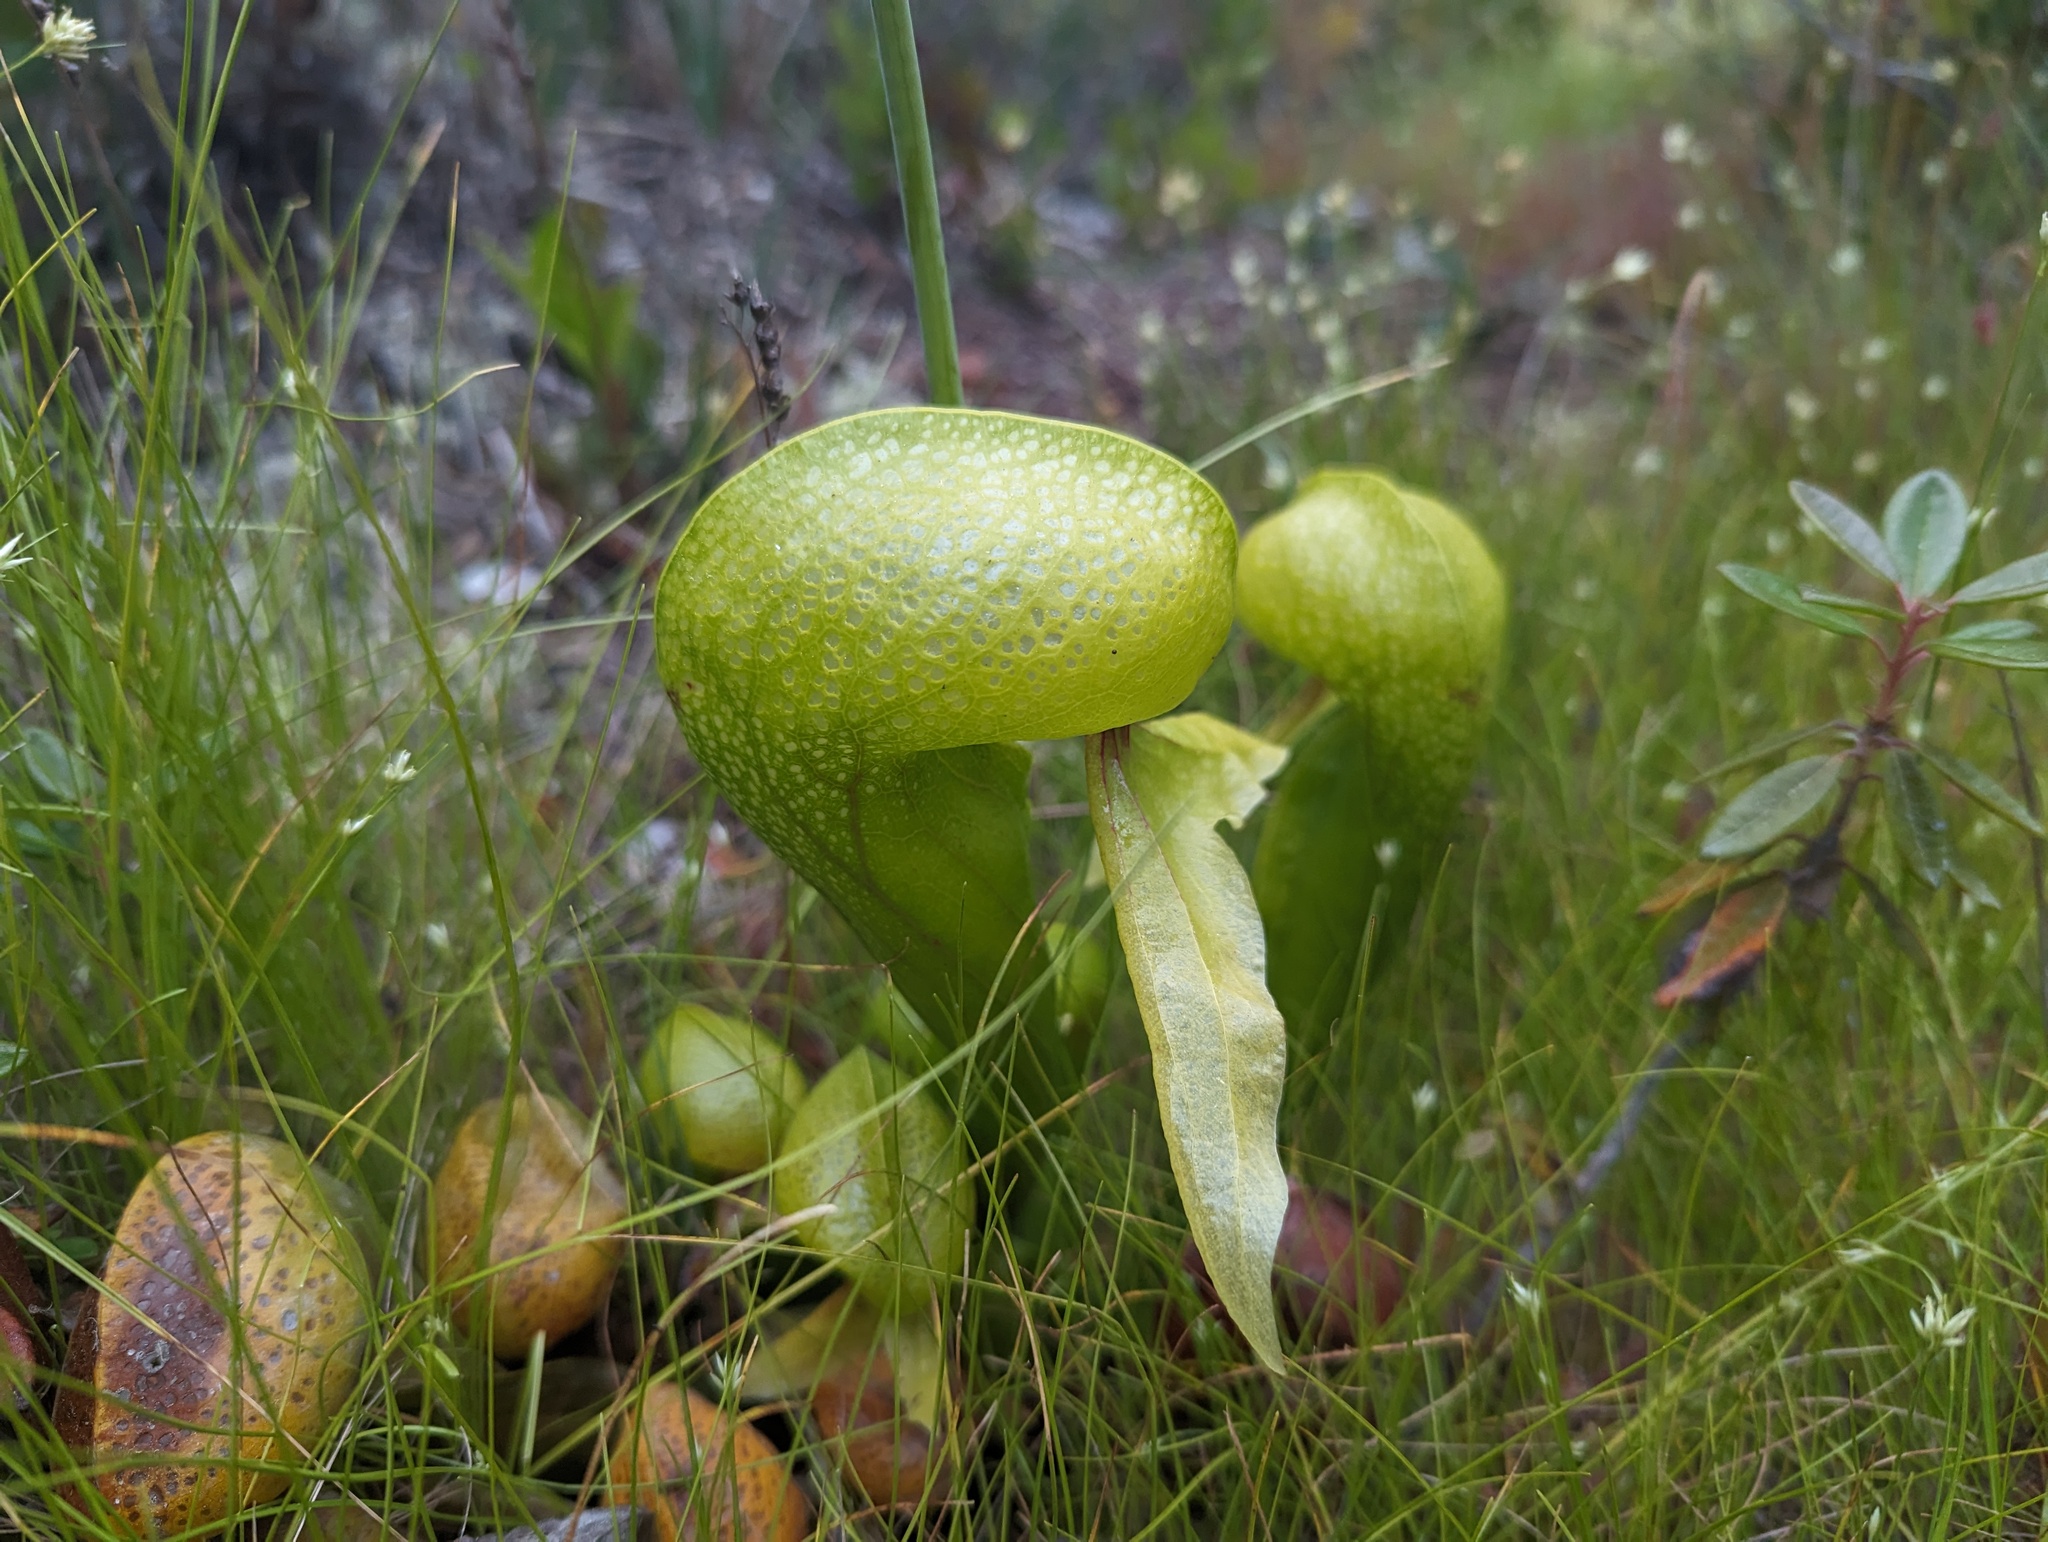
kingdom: Plantae
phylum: Tracheophyta
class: Magnoliopsida
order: Ericales
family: Sarraceniaceae
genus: Darlingtonia
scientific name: Darlingtonia californica
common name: California pitcher plant
